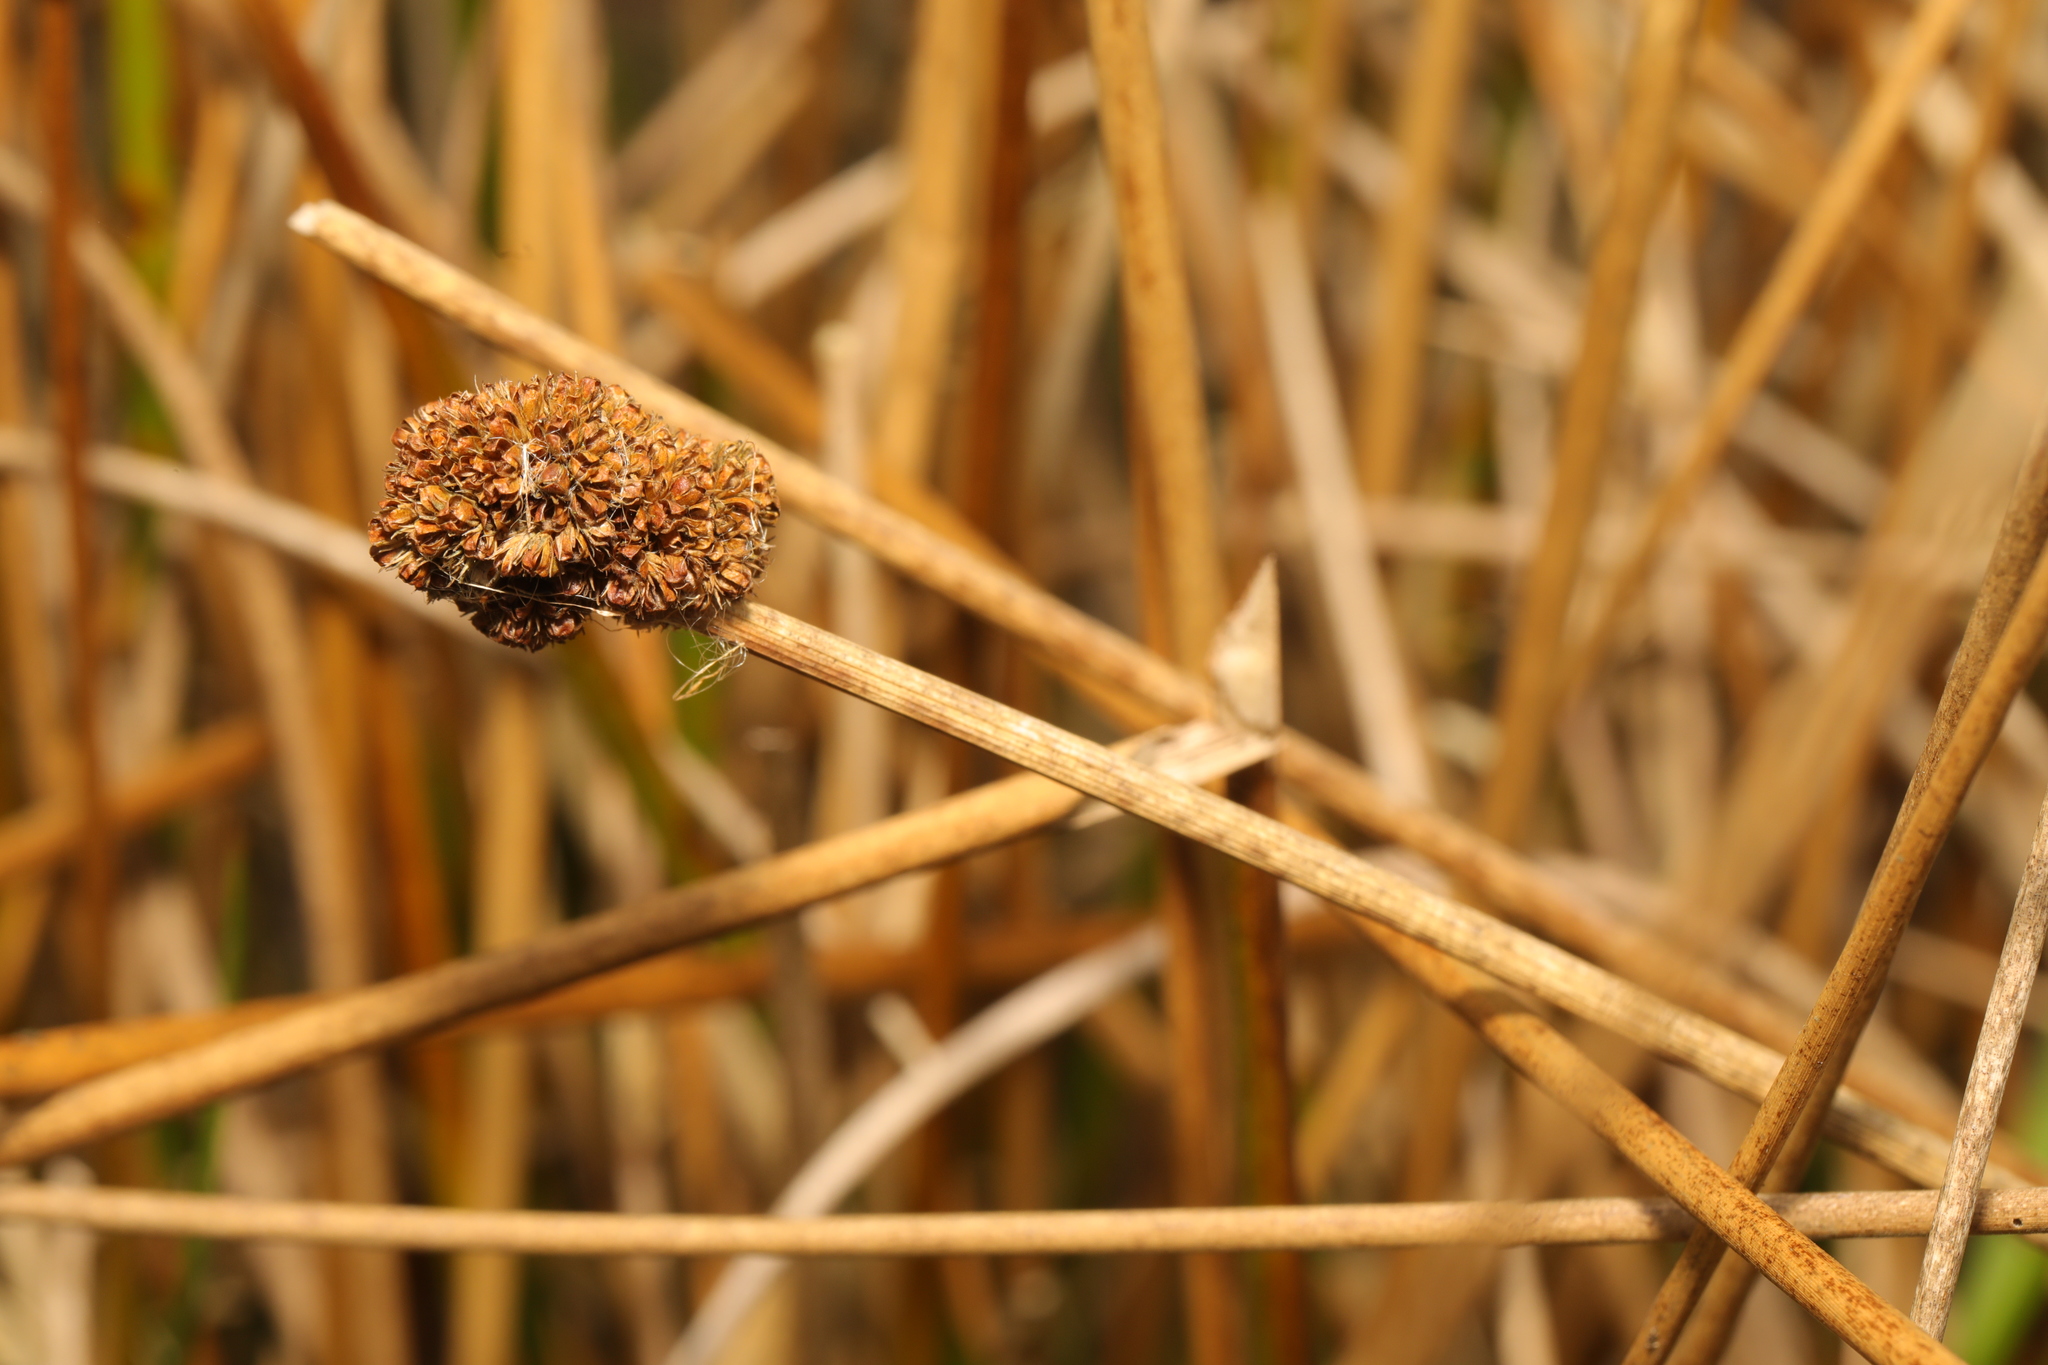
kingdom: Plantae
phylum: Tracheophyta
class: Liliopsida
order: Poales
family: Juncaceae
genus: Juncus
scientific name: Juncus conglomeratus
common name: Compact rush
